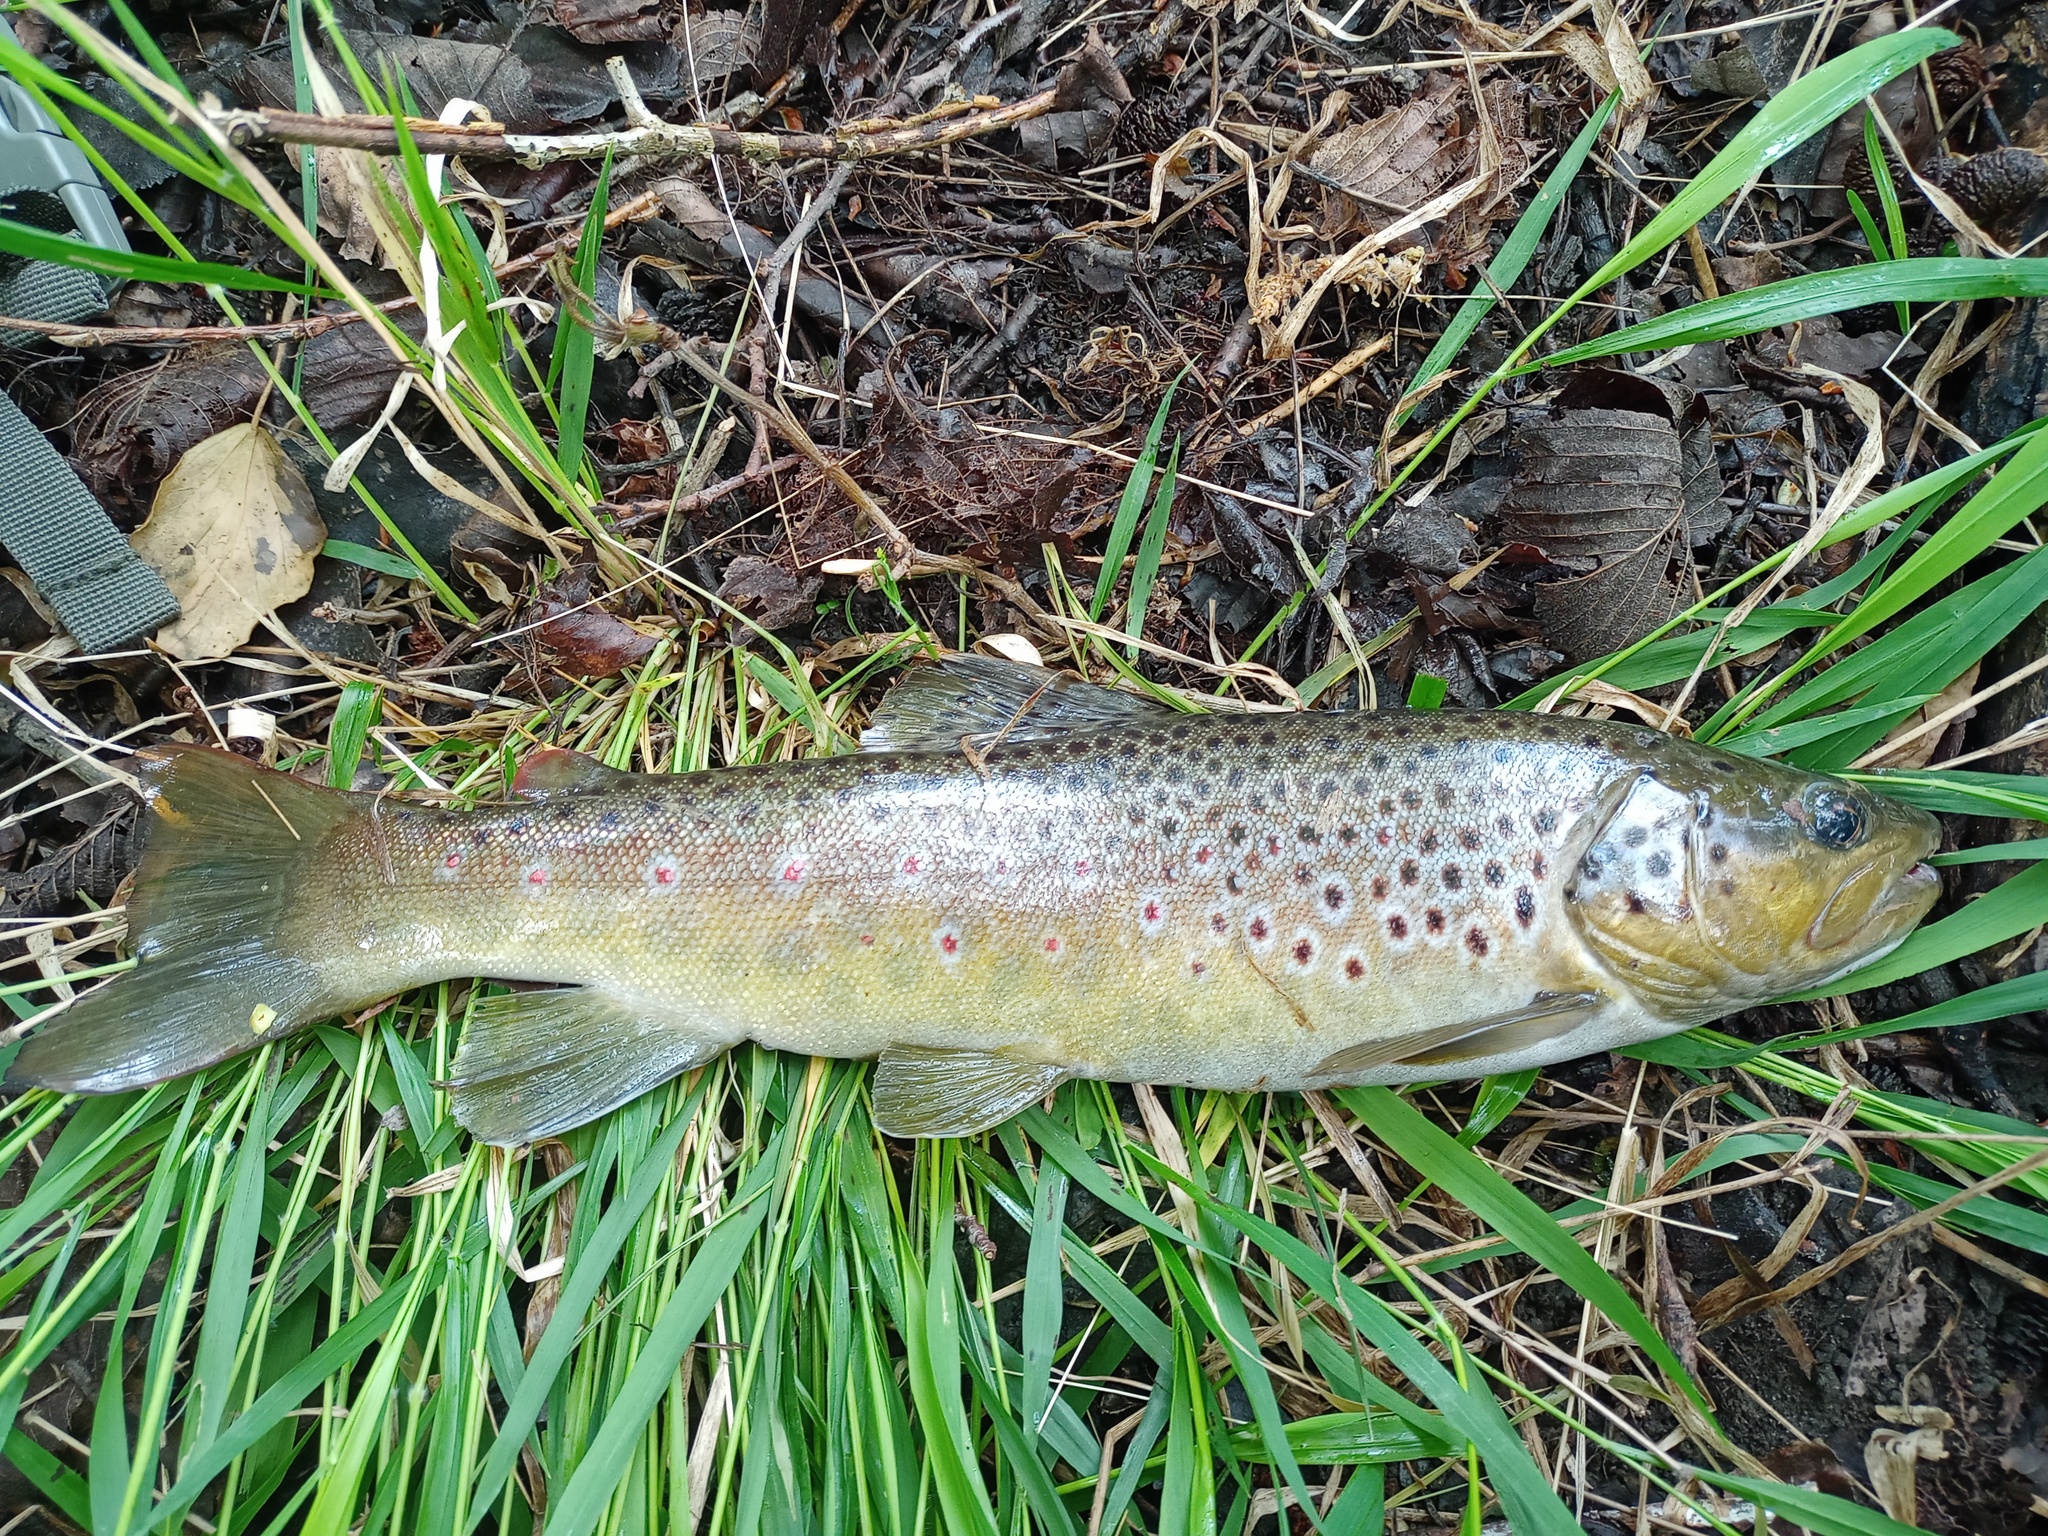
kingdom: Animalia
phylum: Chordata
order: Salmoniformes
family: Salmonidae
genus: Salmo
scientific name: Salmo trutta
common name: Brown trout
